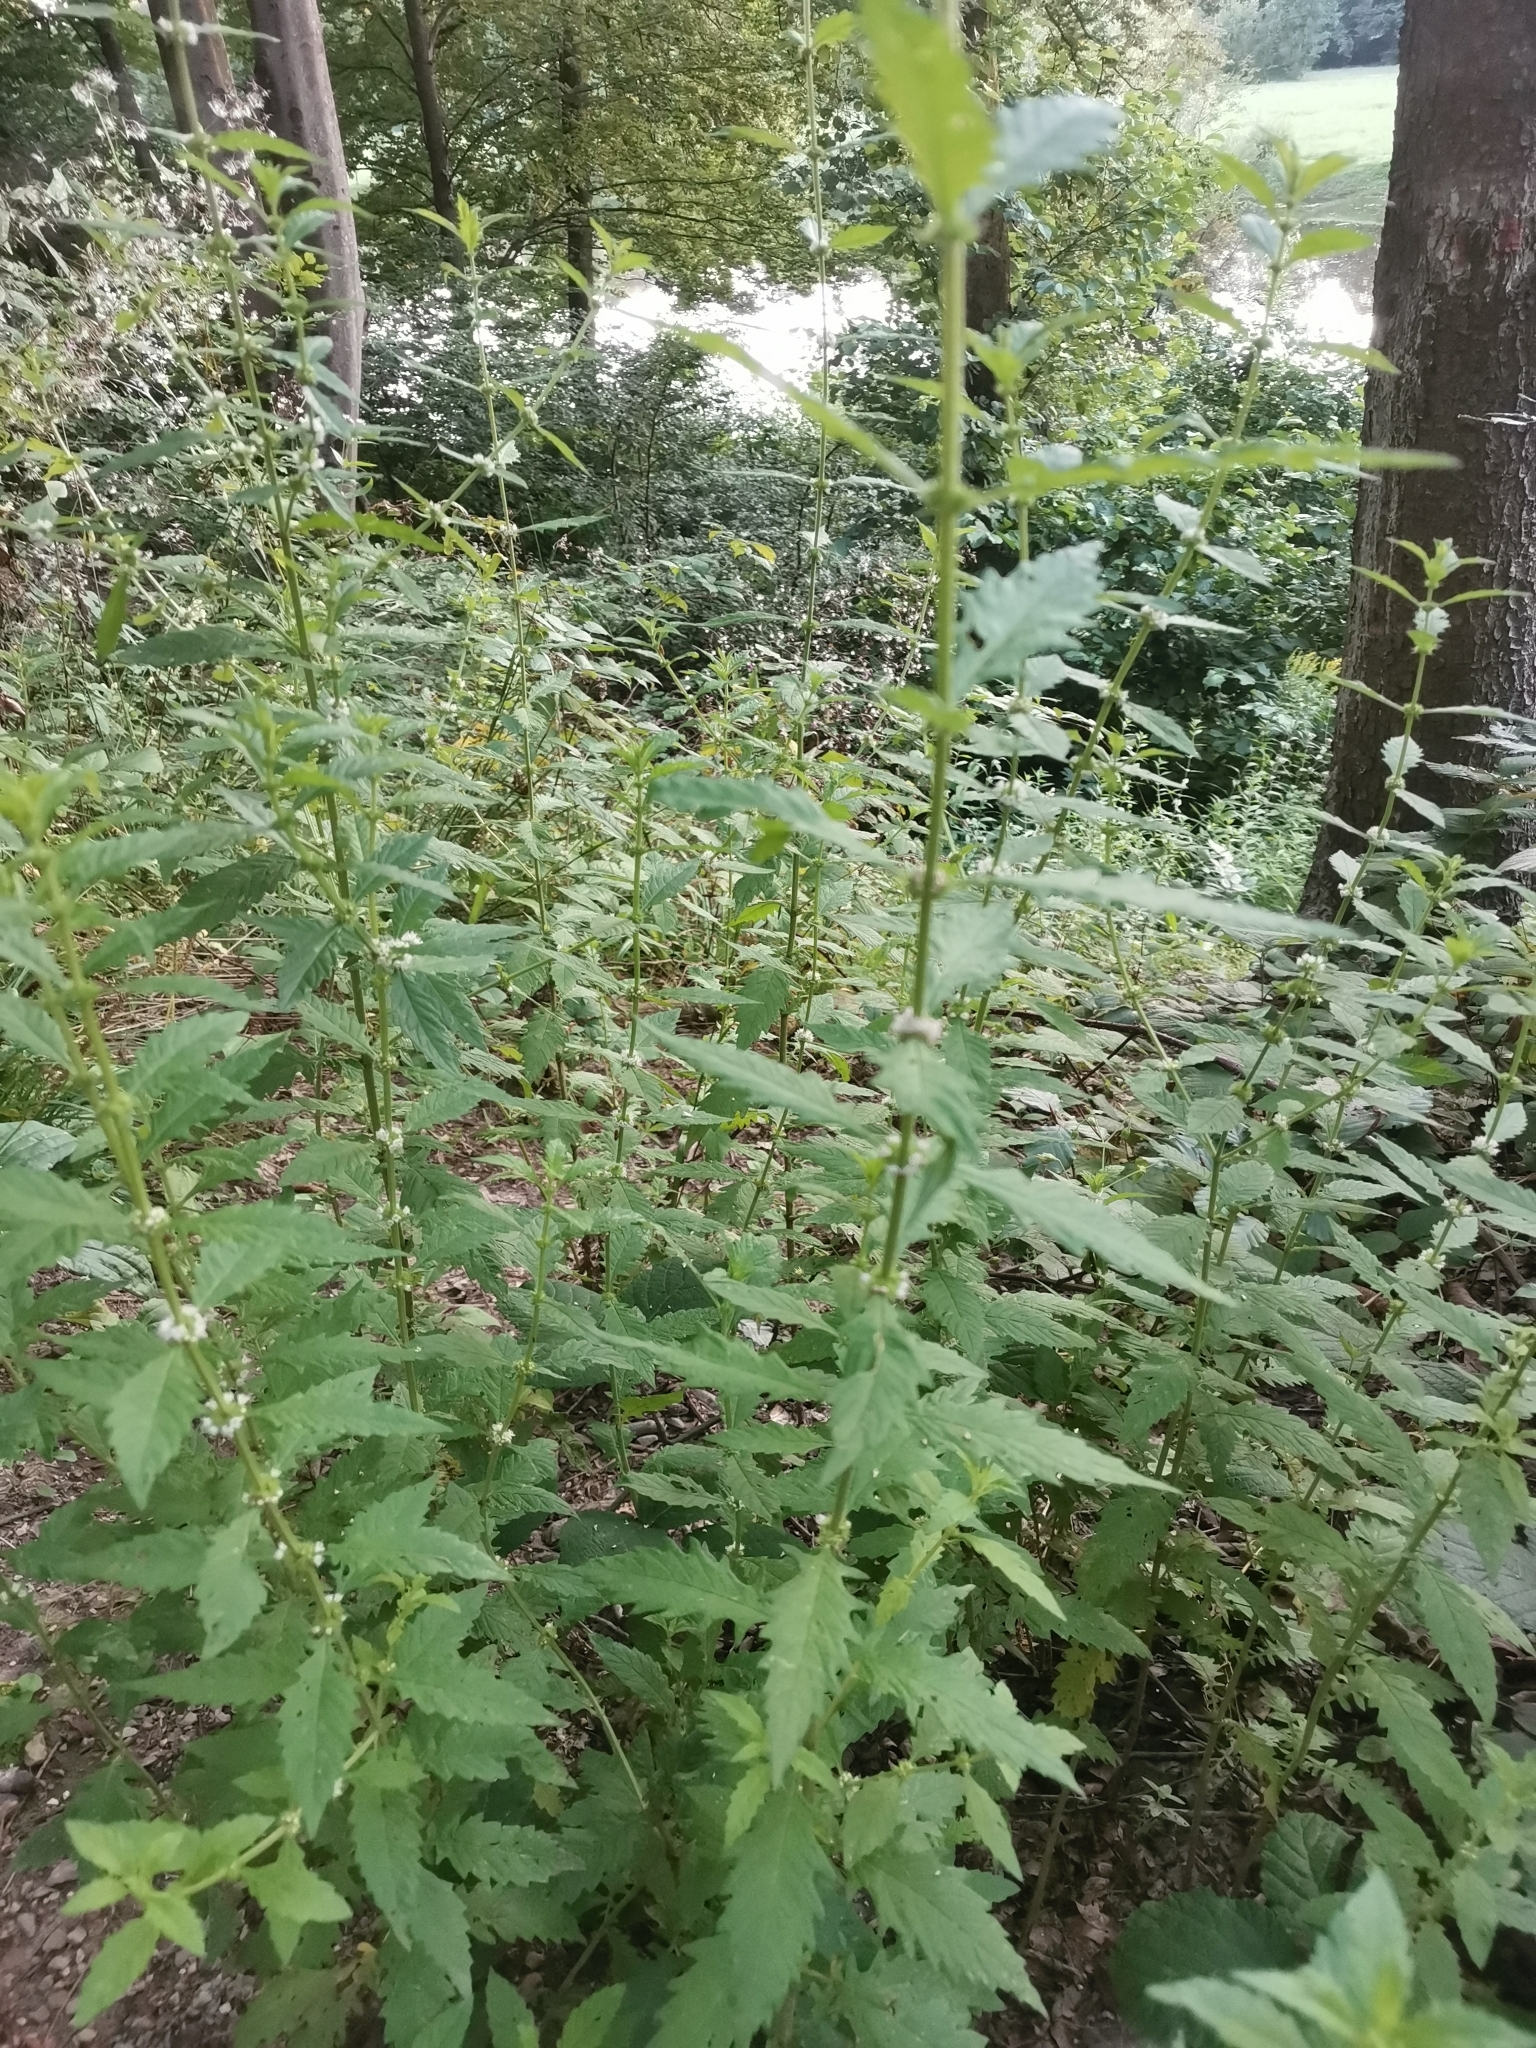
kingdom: Plantae
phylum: Tracheophyta
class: Magnoliopsida
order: Lamiales
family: Lamiaceae
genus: Lycopus
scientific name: Lycopus europaeus
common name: European bugleweed
